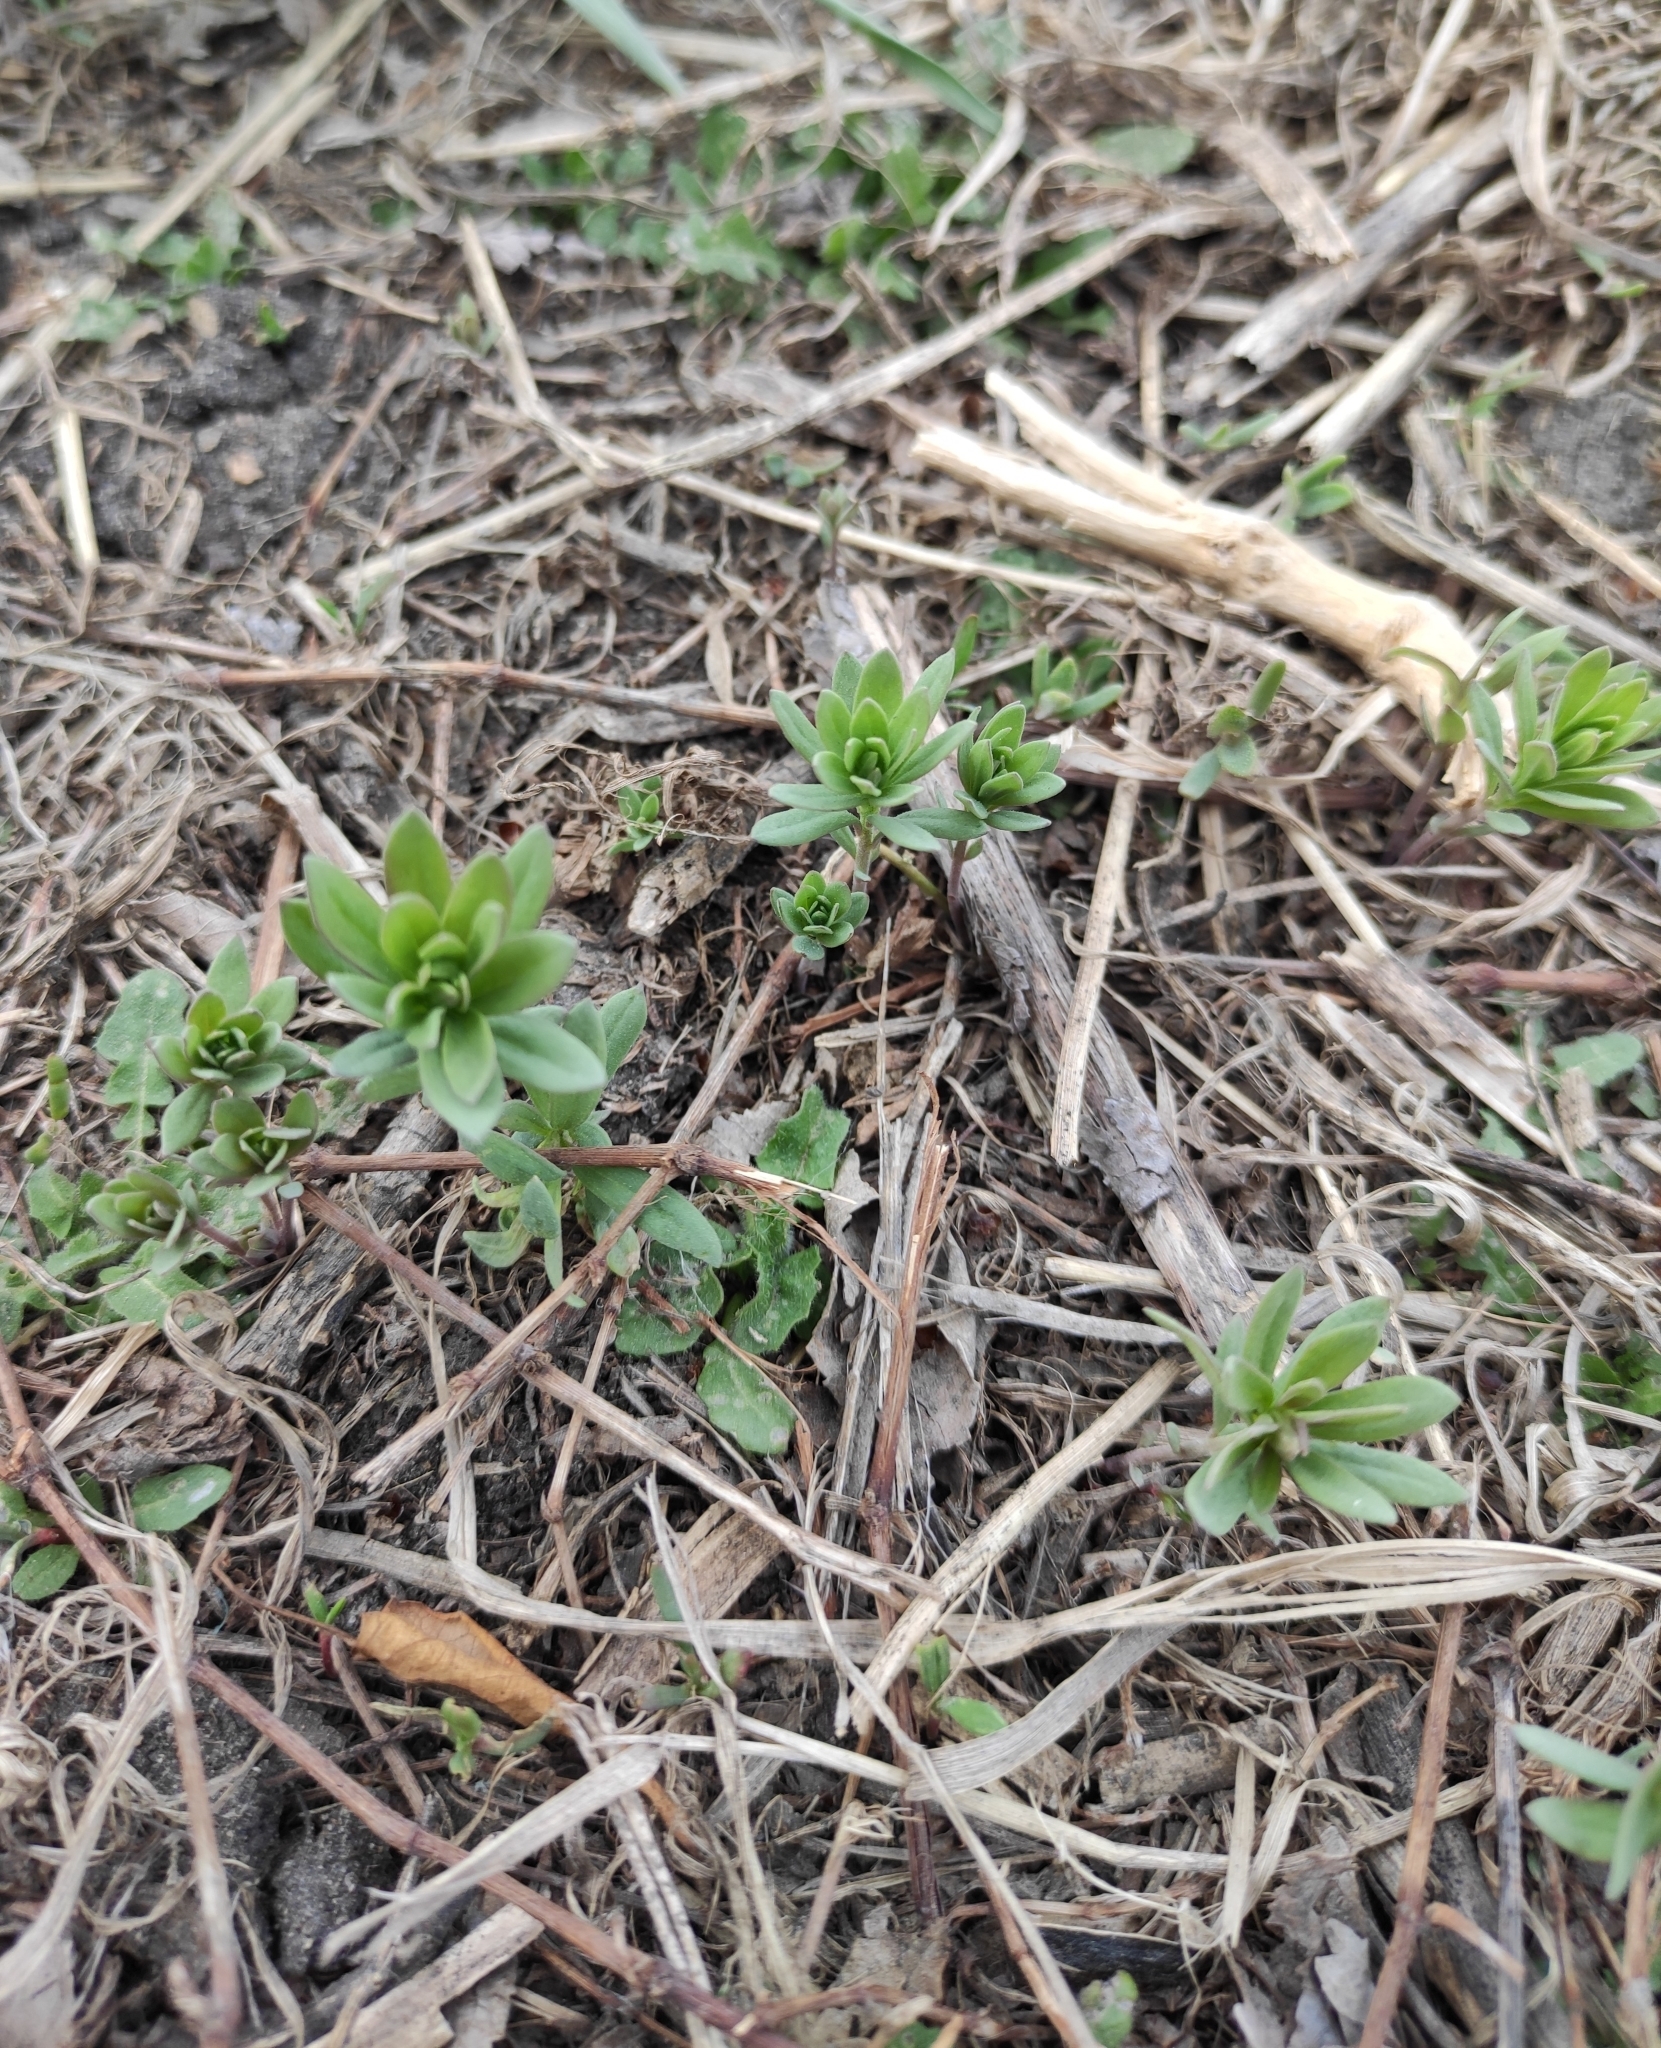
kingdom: Plantae
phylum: Tracheophyta
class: Magnoliopsida
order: Lamiales
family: Plantaginaceae
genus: Linaria
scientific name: Linaria vulgaris
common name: Butter and eggs
